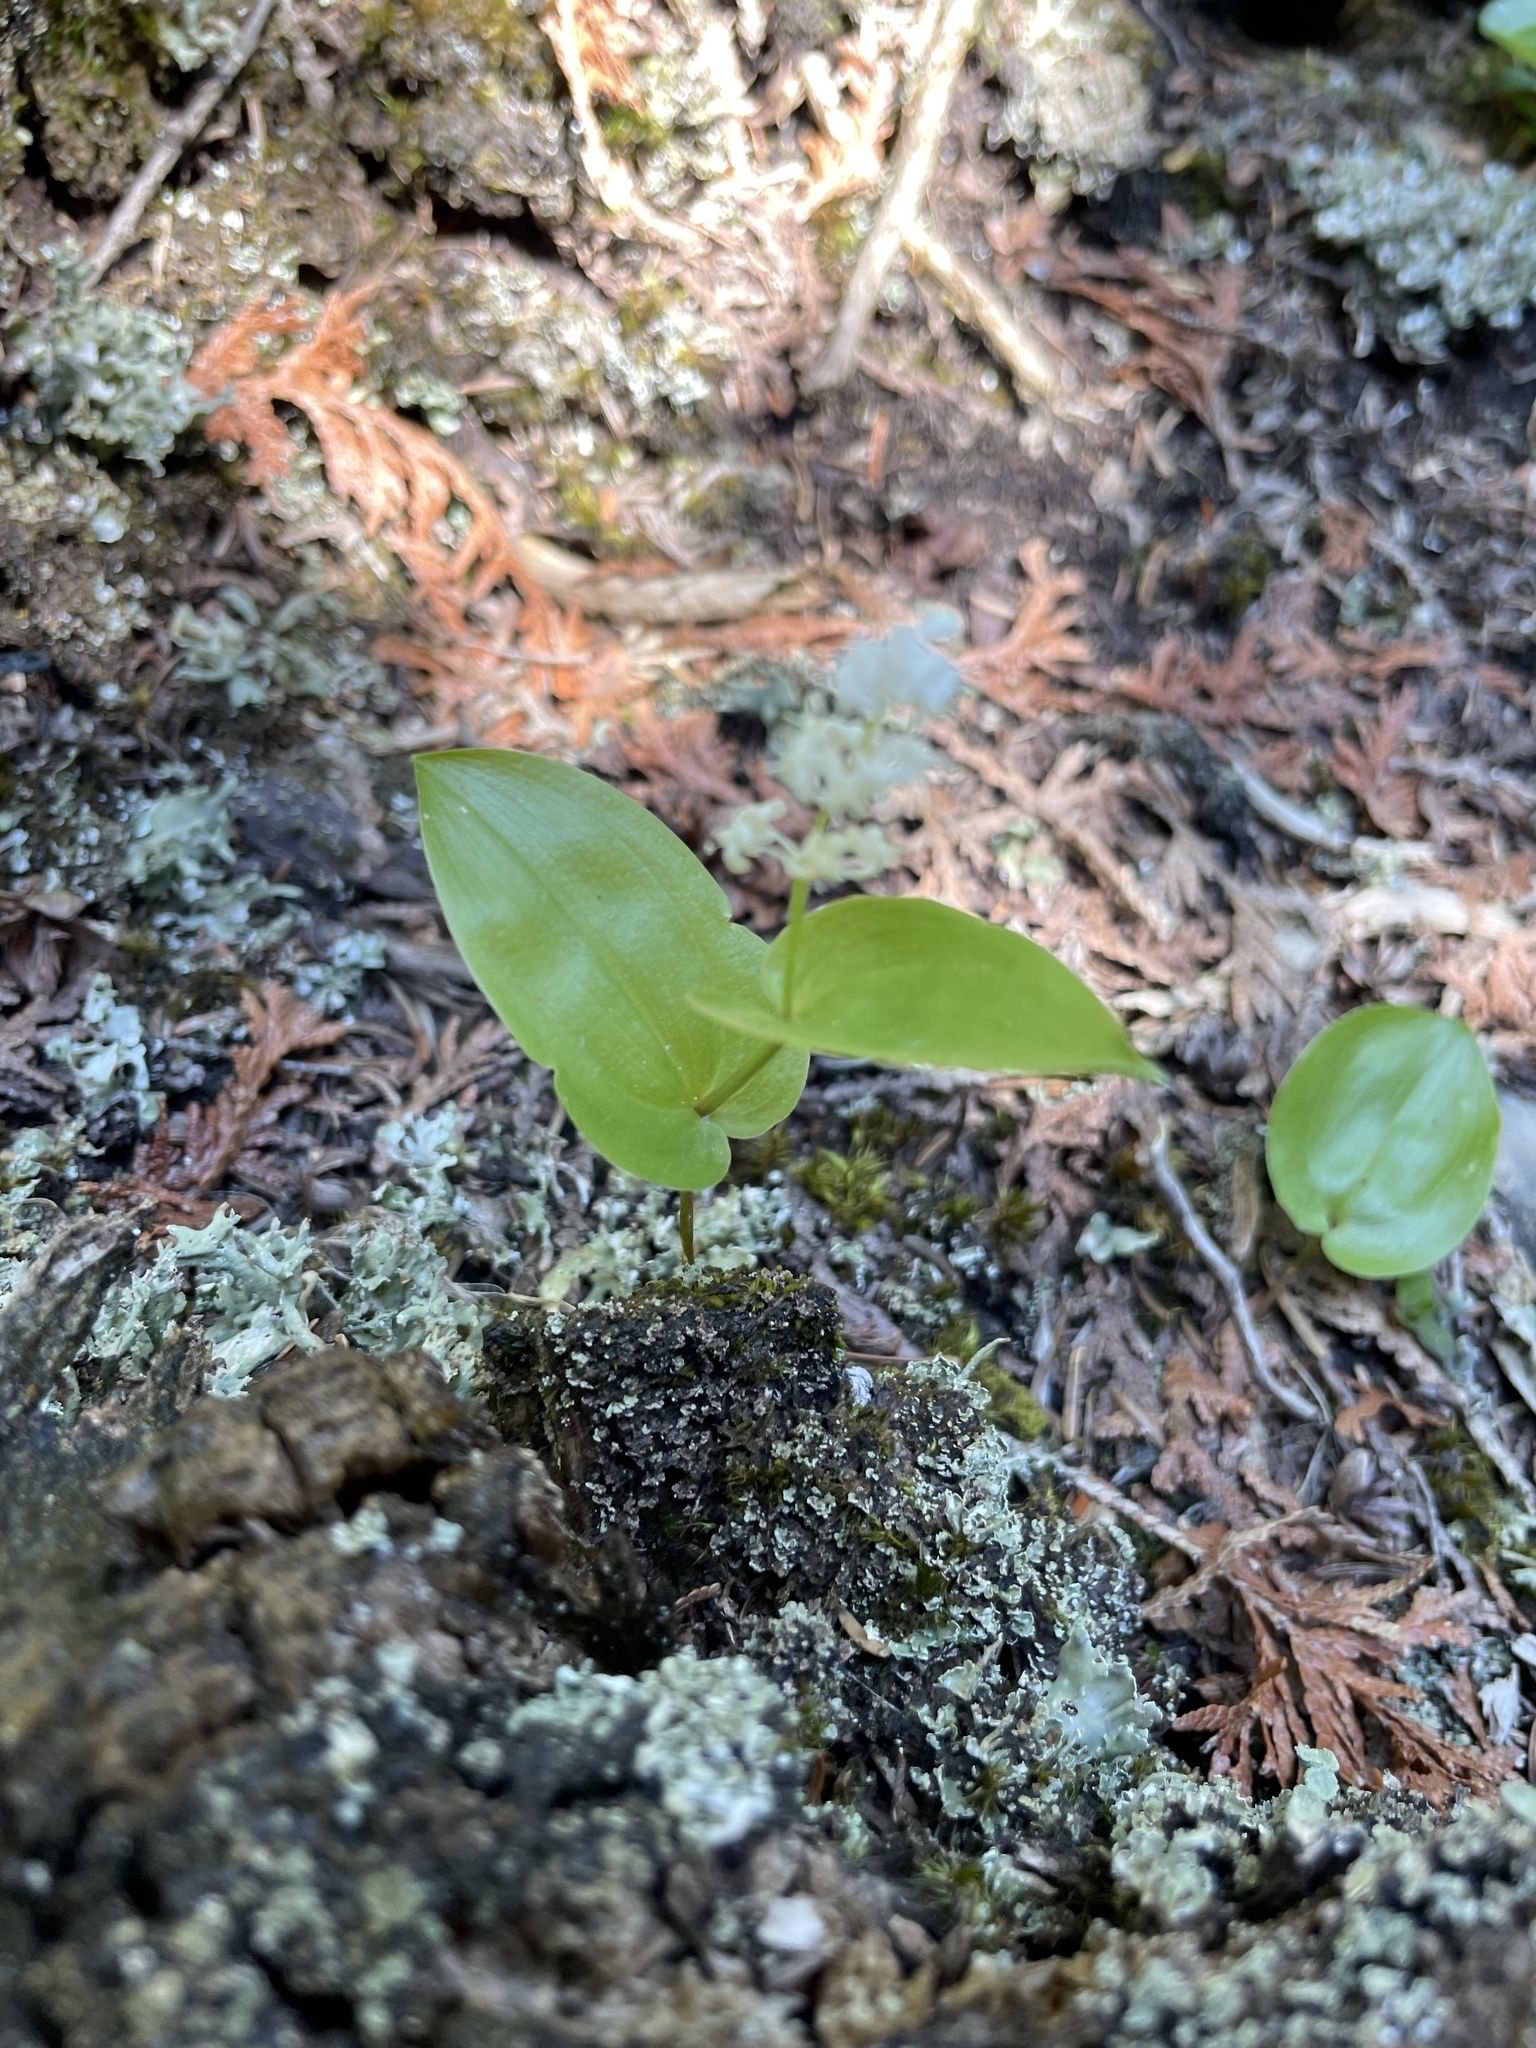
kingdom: Plantae
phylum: Tracheophyta
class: Liliopsida
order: Asparagales
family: Asparagaceae
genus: Maianthemum
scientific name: Maianthemum canadense
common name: False lily-of-the-valley
